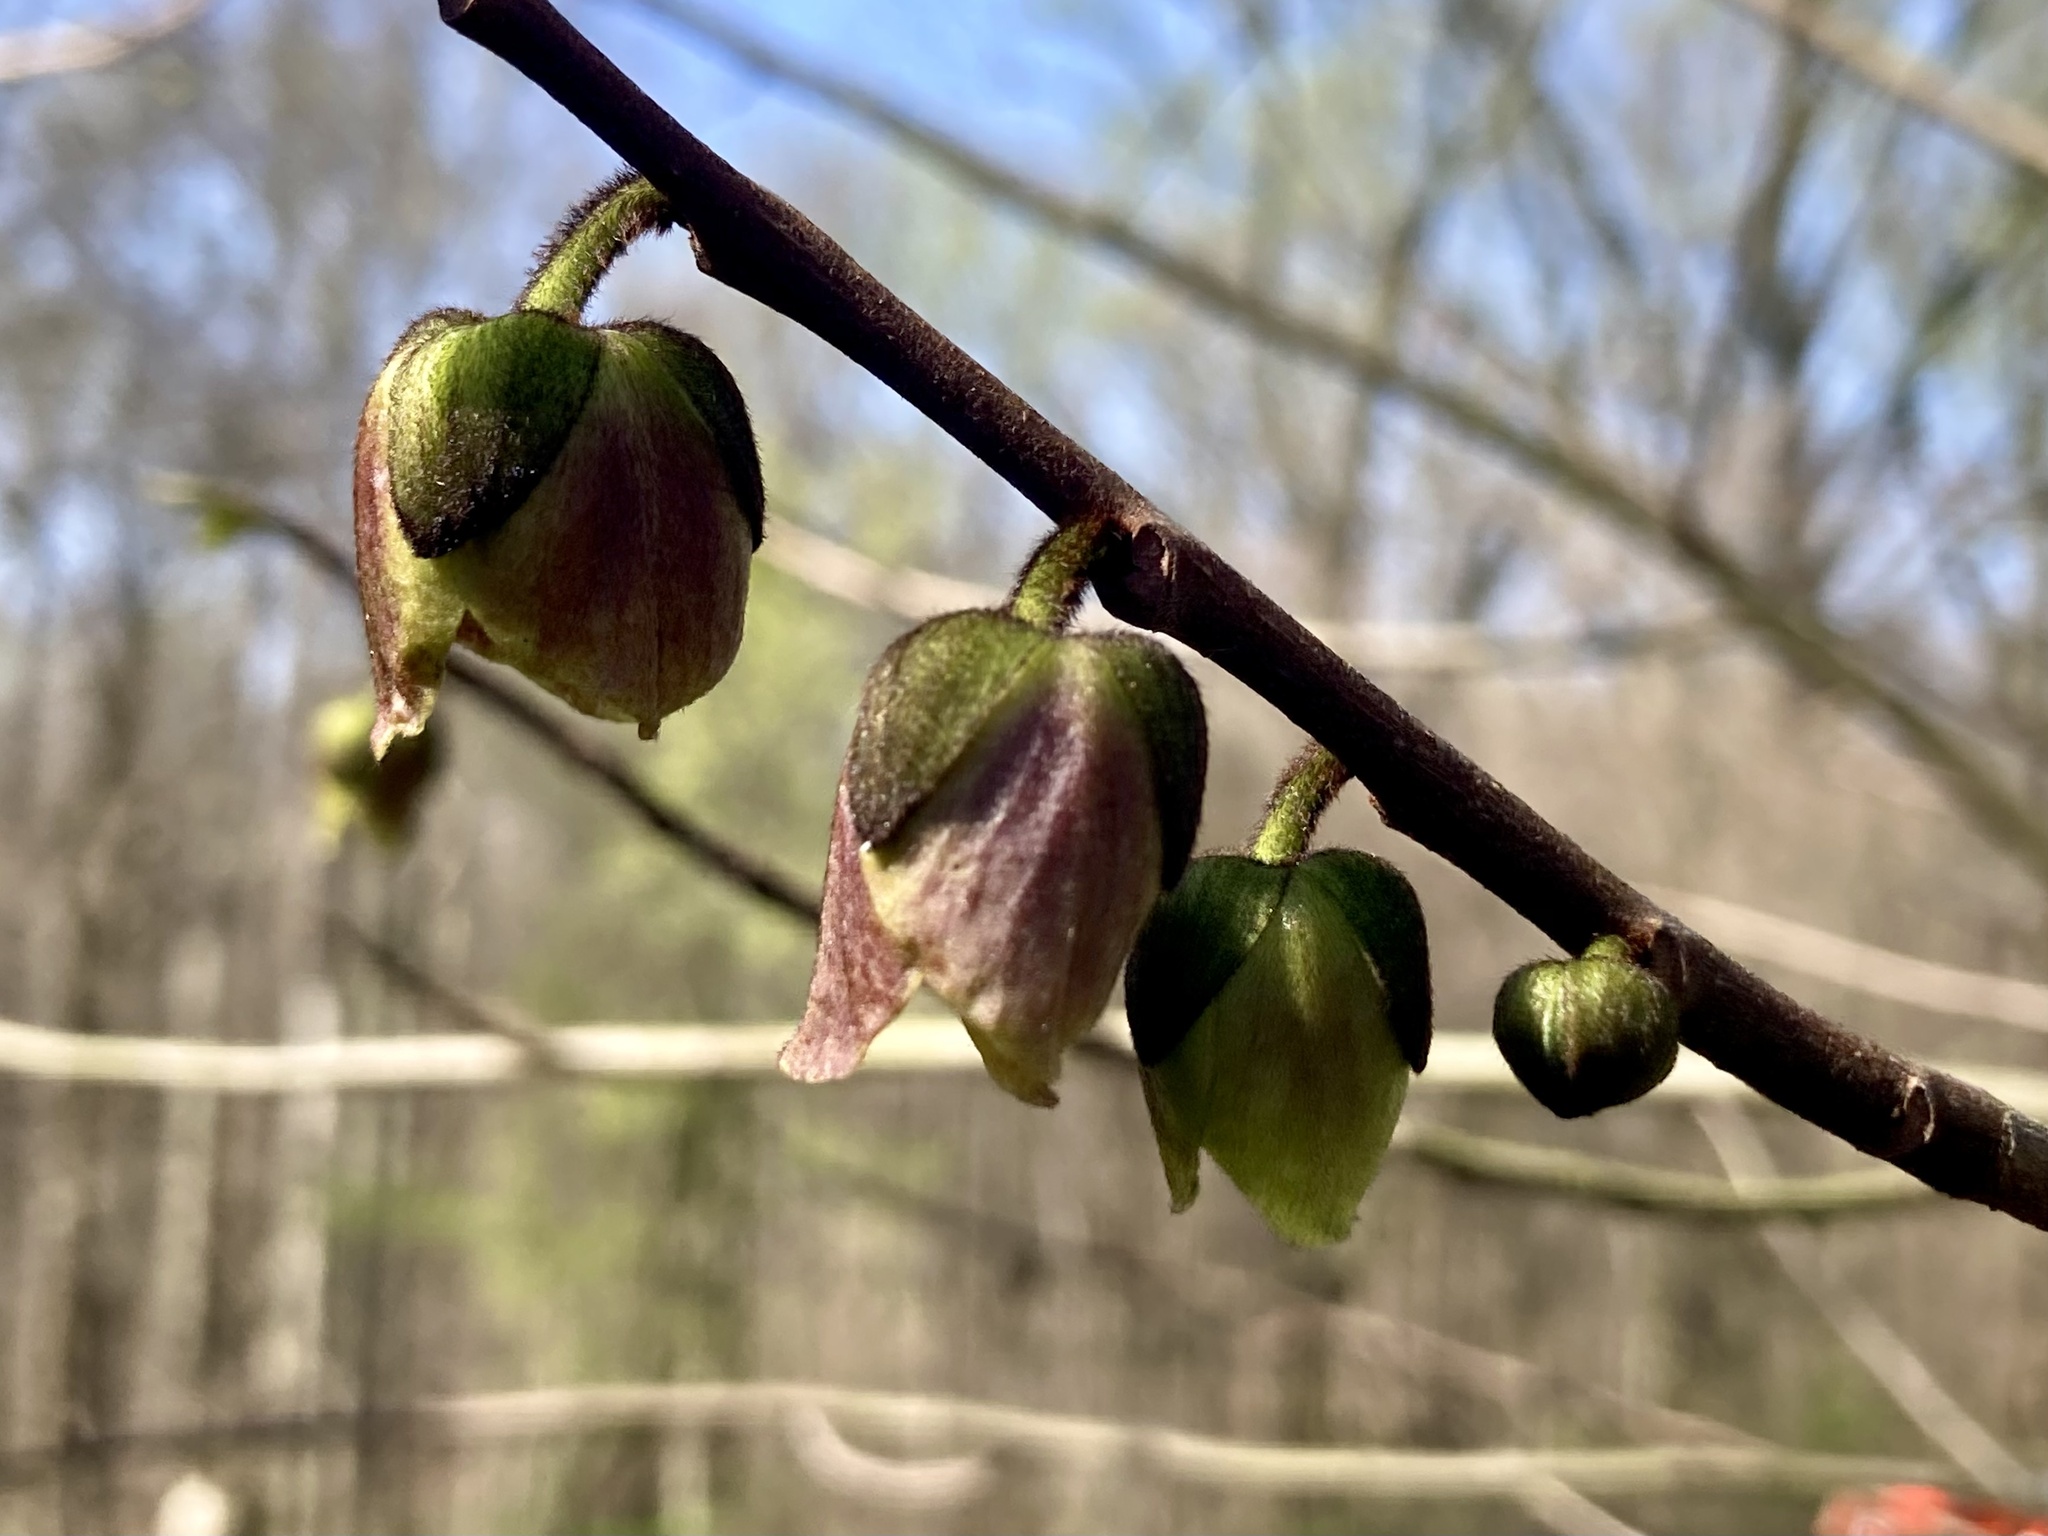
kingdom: Plantae
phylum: Tracheophyta
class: Magnoliopsida
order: Magnoliales
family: Annonaceae
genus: Asimina
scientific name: Asimina triloba
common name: Dog-banana
